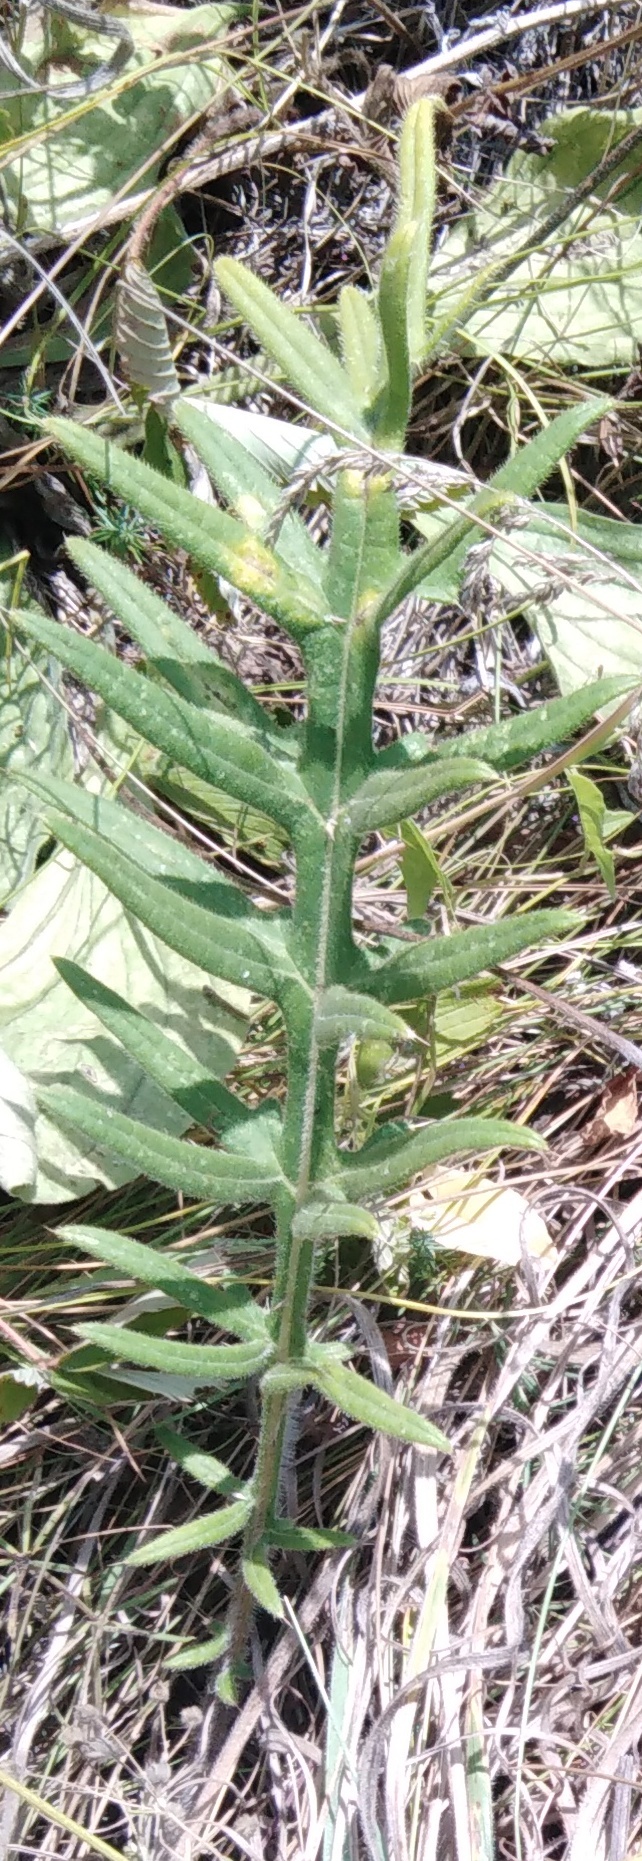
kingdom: Plantae
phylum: Tracheophyta
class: Magnoliopsida
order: Asterales
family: Asteraceae
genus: Lophiolepis
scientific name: Lophiolepis decussata
